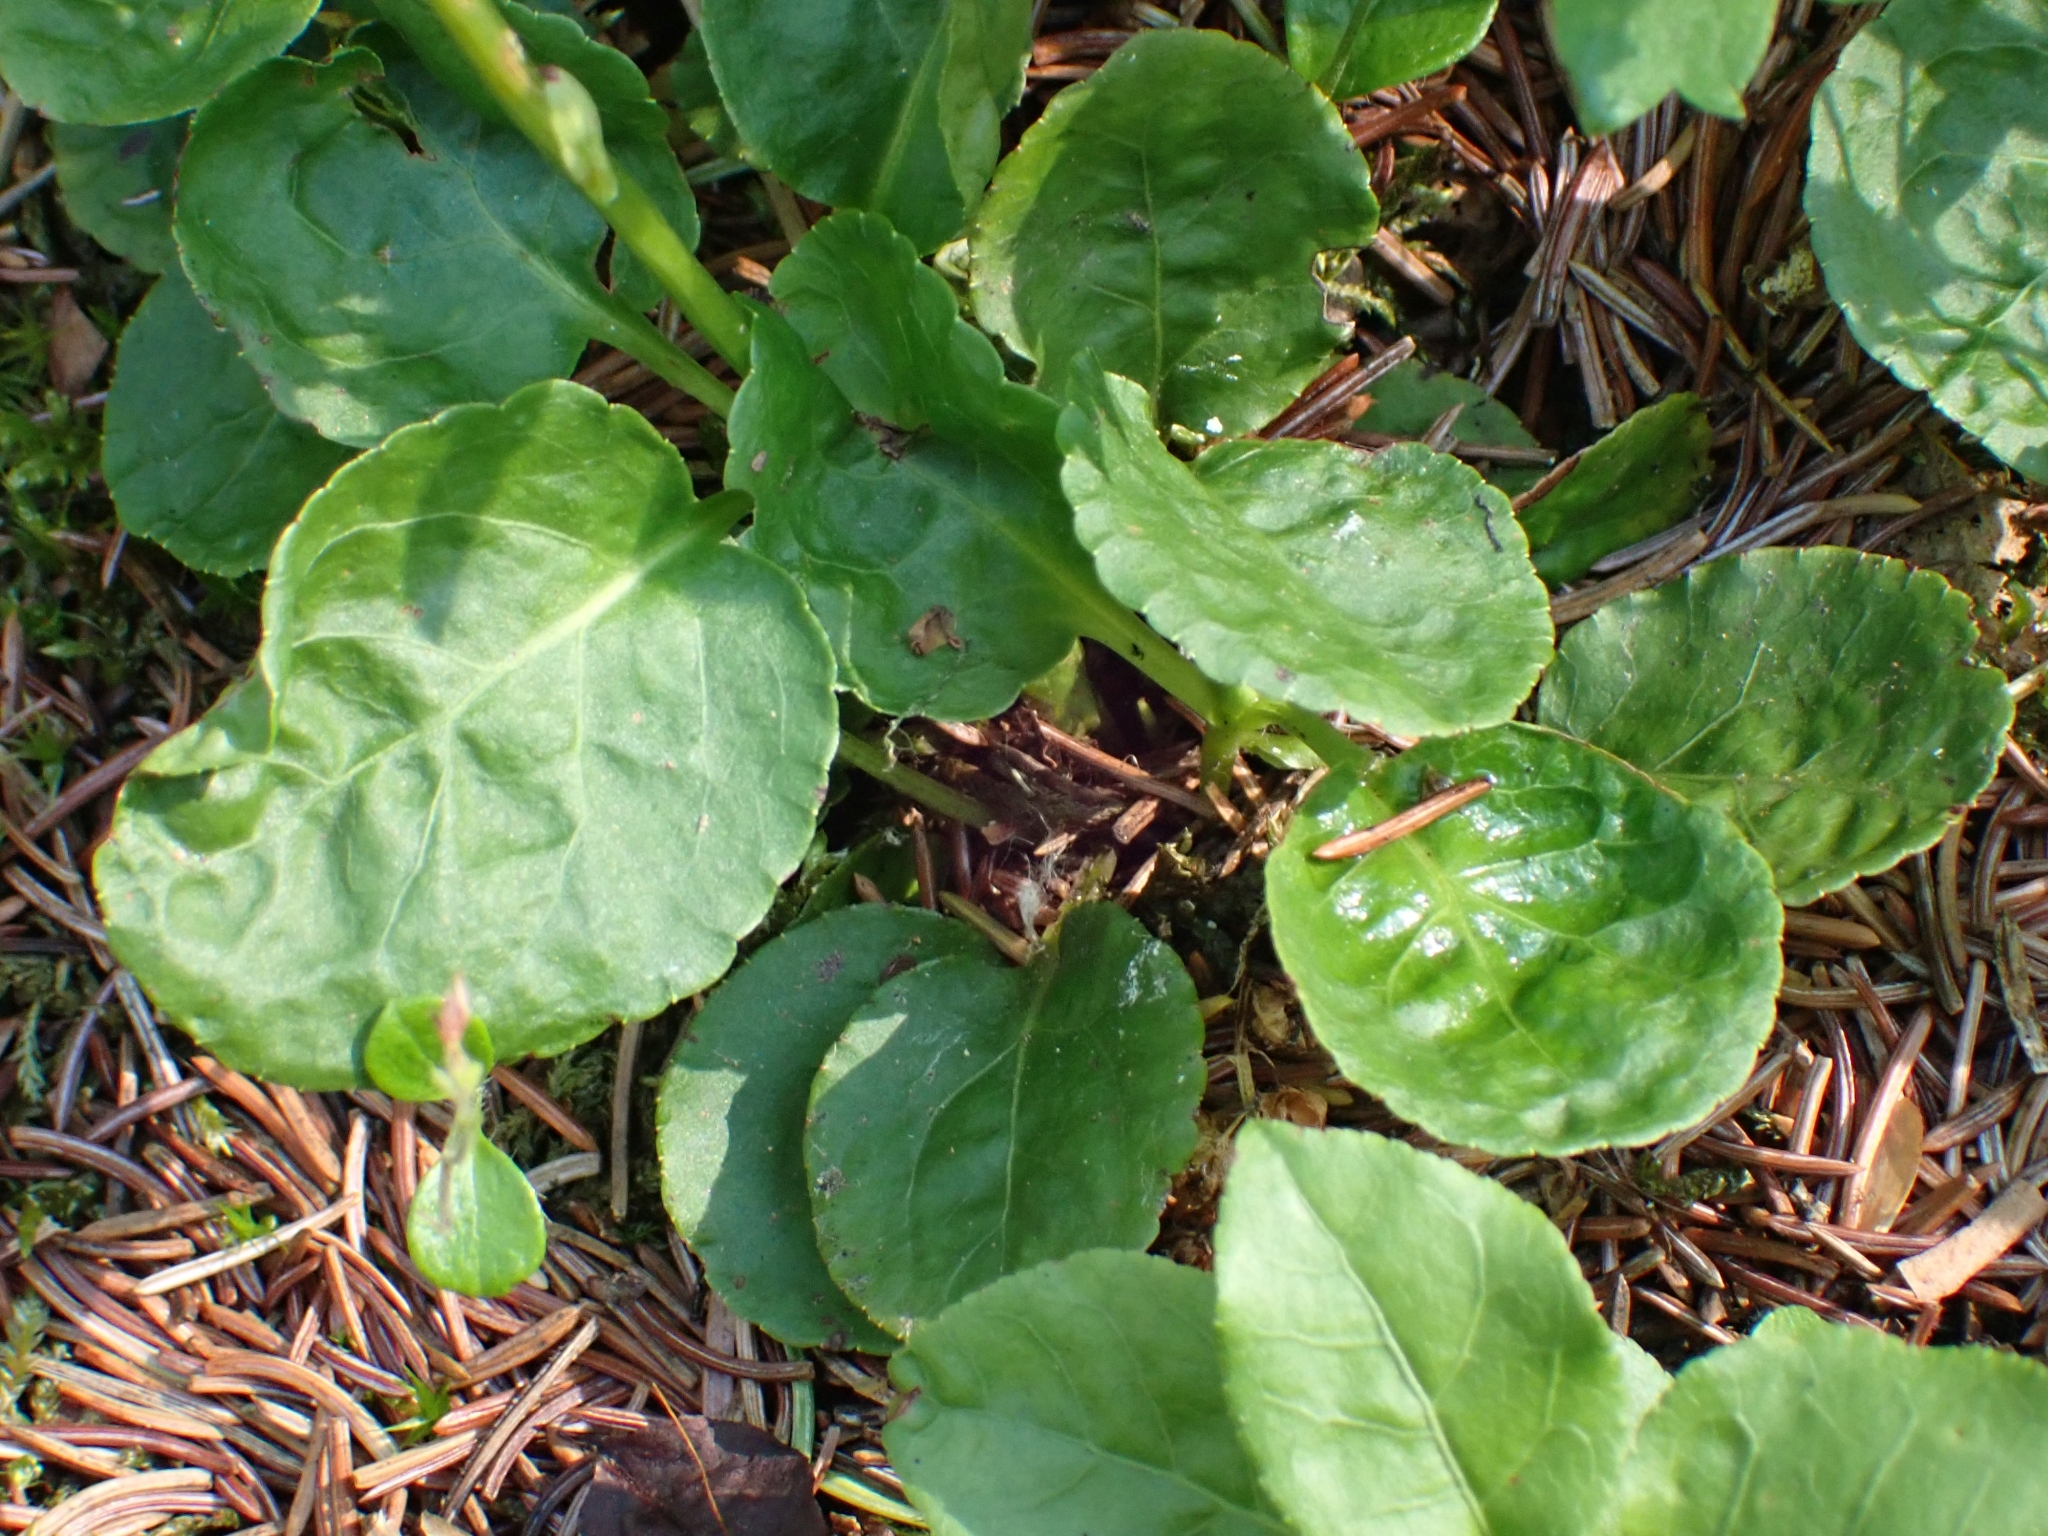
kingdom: Plantae
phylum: Tracheophyta
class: Magnoliopsida
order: Ericales
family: Ericaceae
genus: Pyrola
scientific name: Pyrola minor
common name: Common wintergreen
